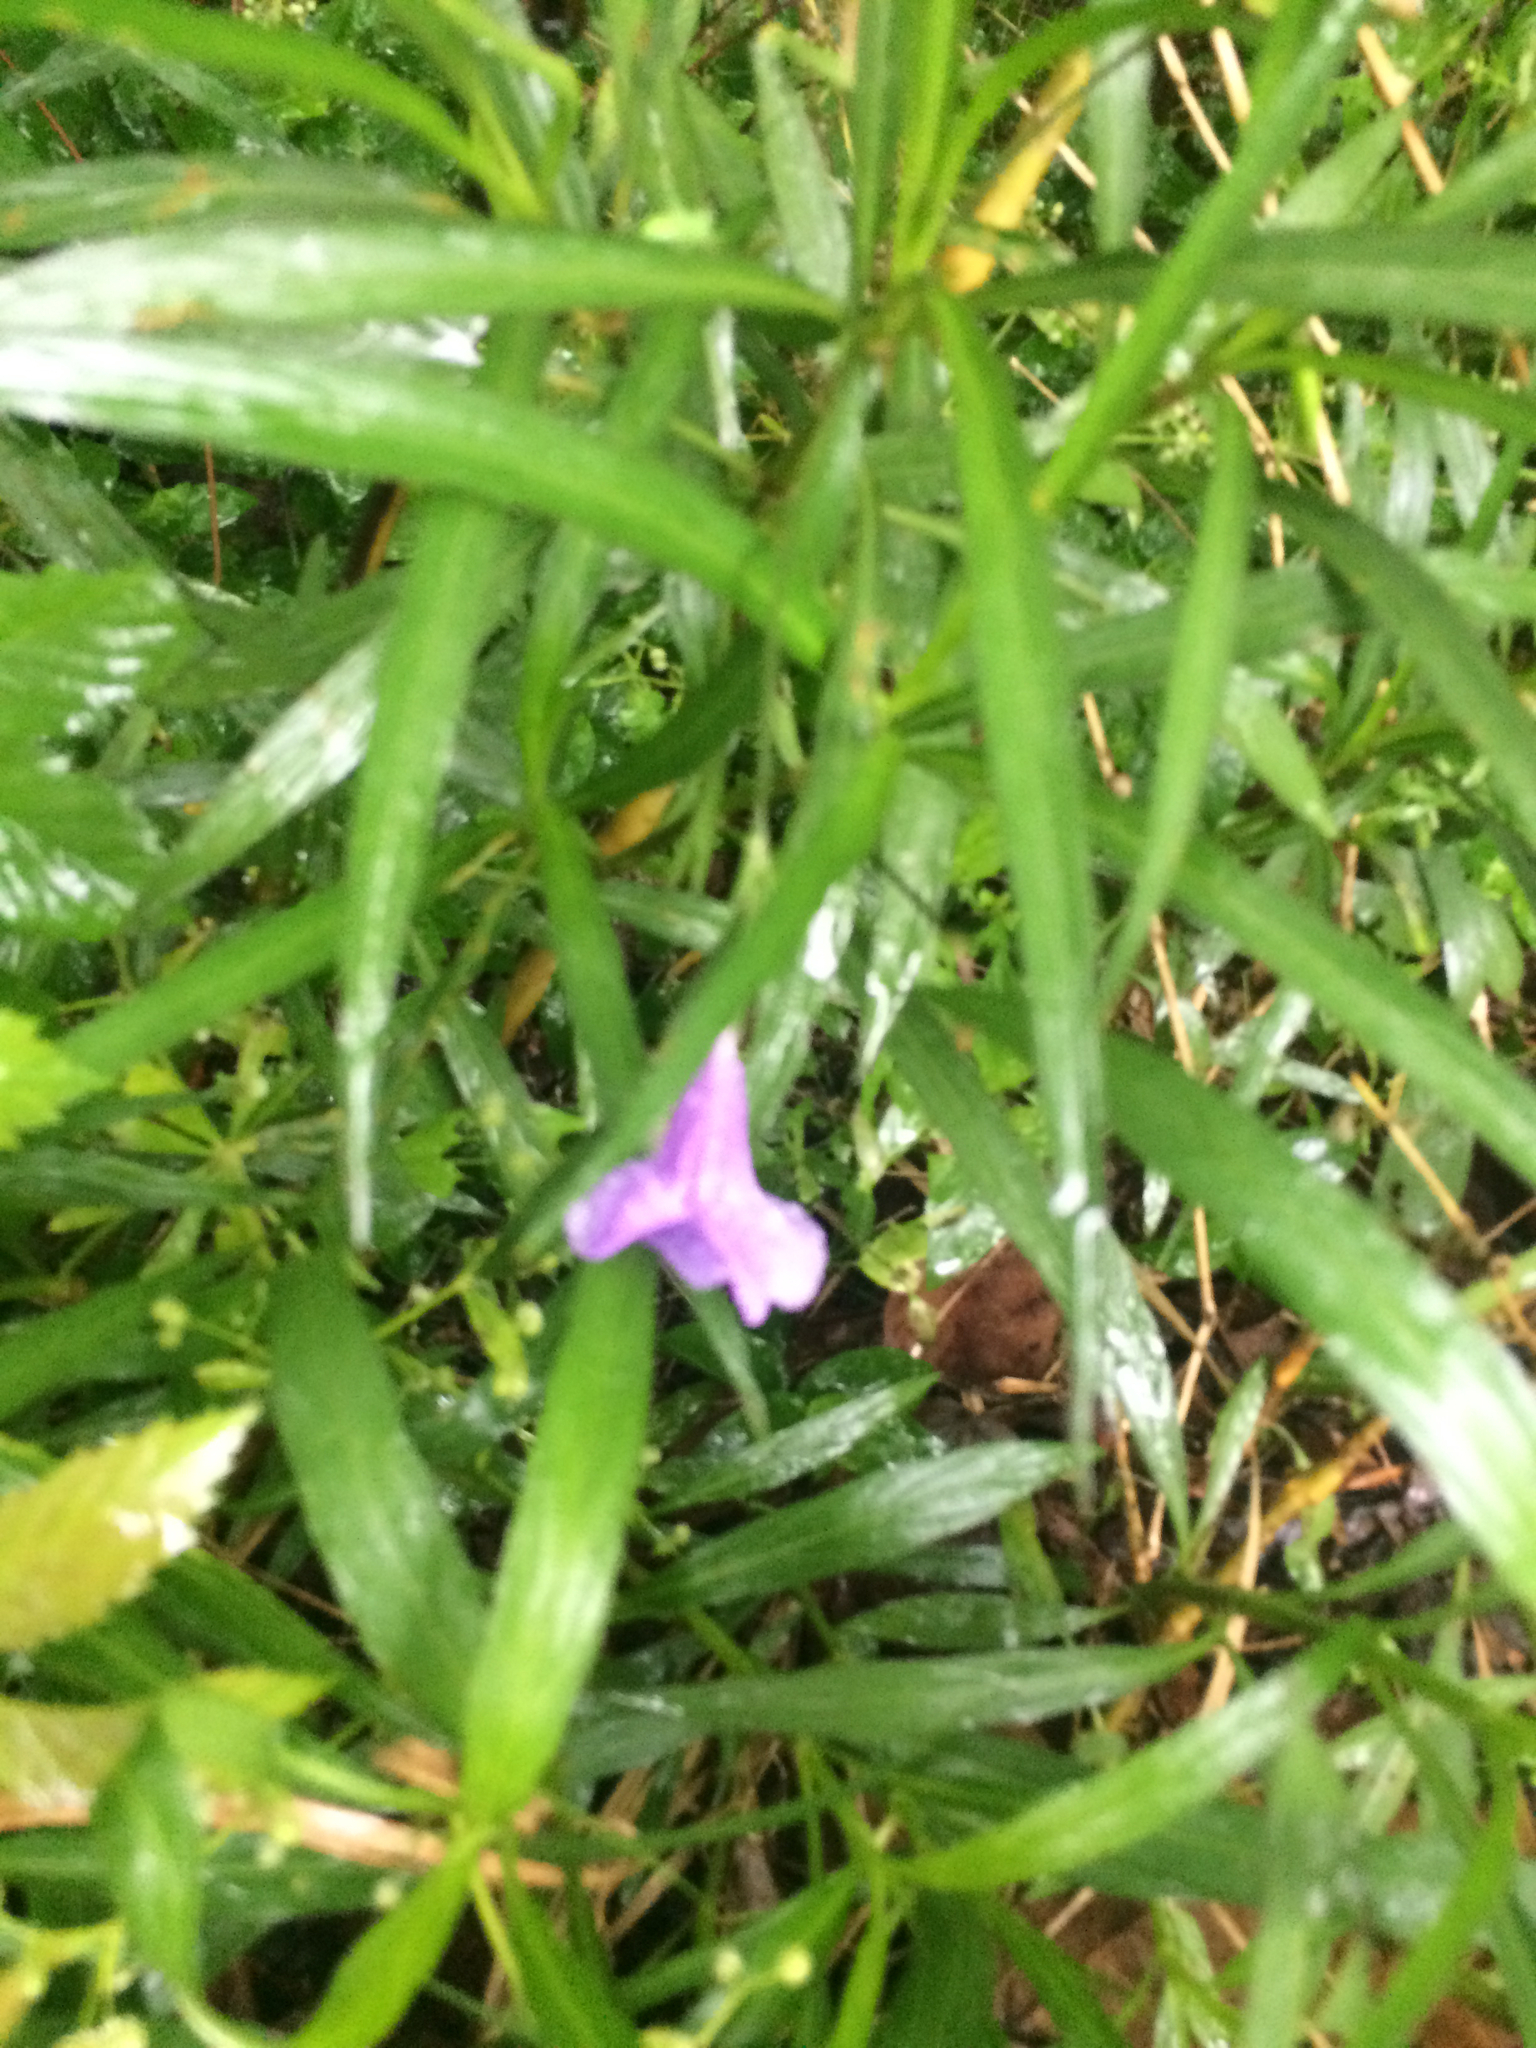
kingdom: Plantae
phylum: Tracheophyta
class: Magnoliopsida
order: Lamiales
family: Acanthaceae
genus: Ruellia
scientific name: Ruellia simplex
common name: Softseed wild petunia
